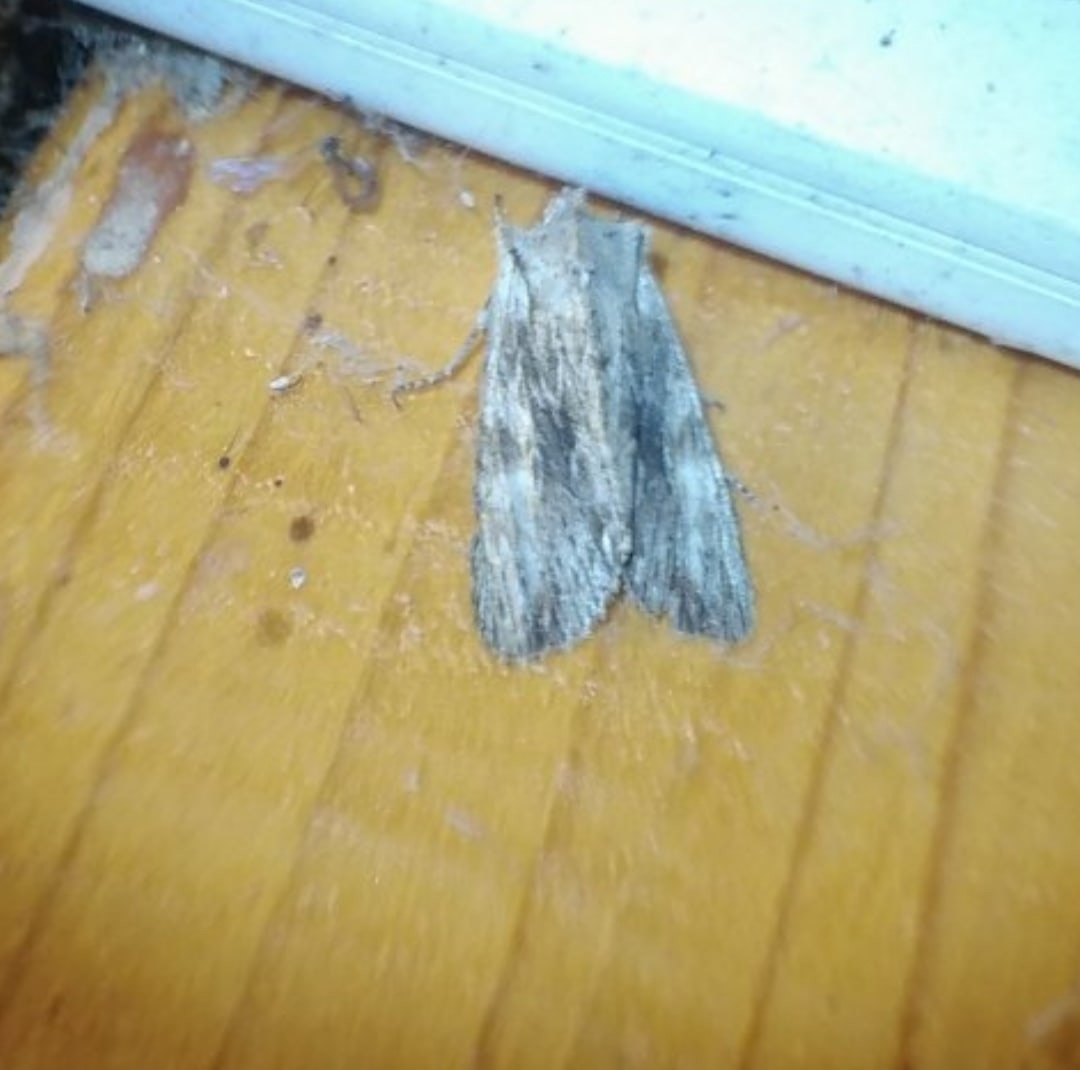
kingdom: Animalia
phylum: Arthropoda
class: Insecta
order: Lepidoptera
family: Noctuidae
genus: Lithophane
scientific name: Lithophane socia
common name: Pale pinion
